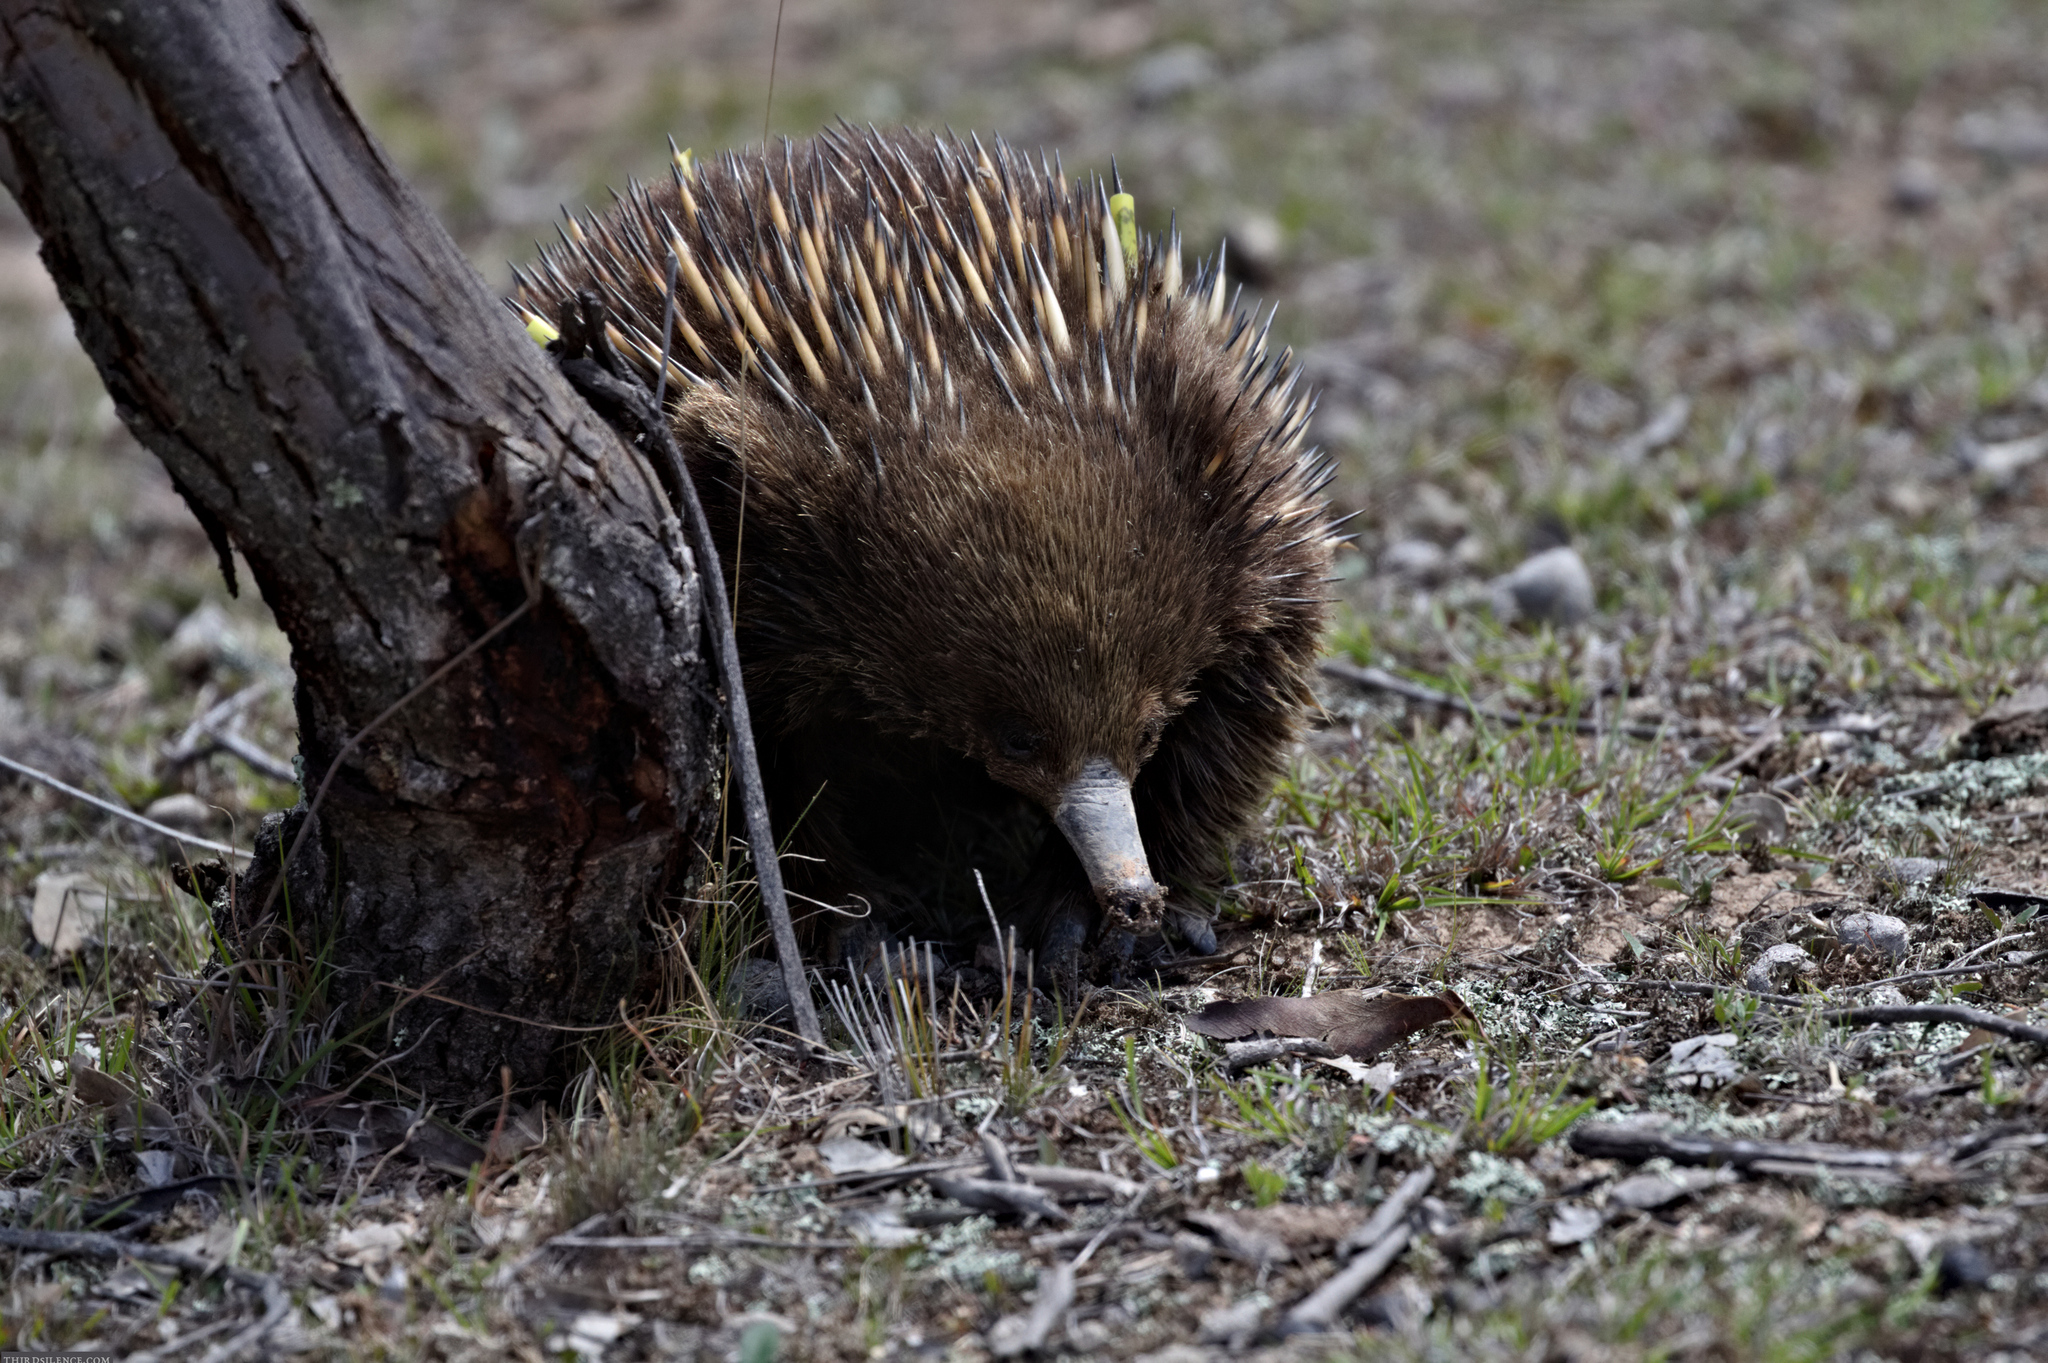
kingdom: Animalia
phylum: Chordata
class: Mammalia
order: Monotremata
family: Tachyglossidae
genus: Tachyglossus
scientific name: Tachyglossus aculeatus
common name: Short-beaked echidna
